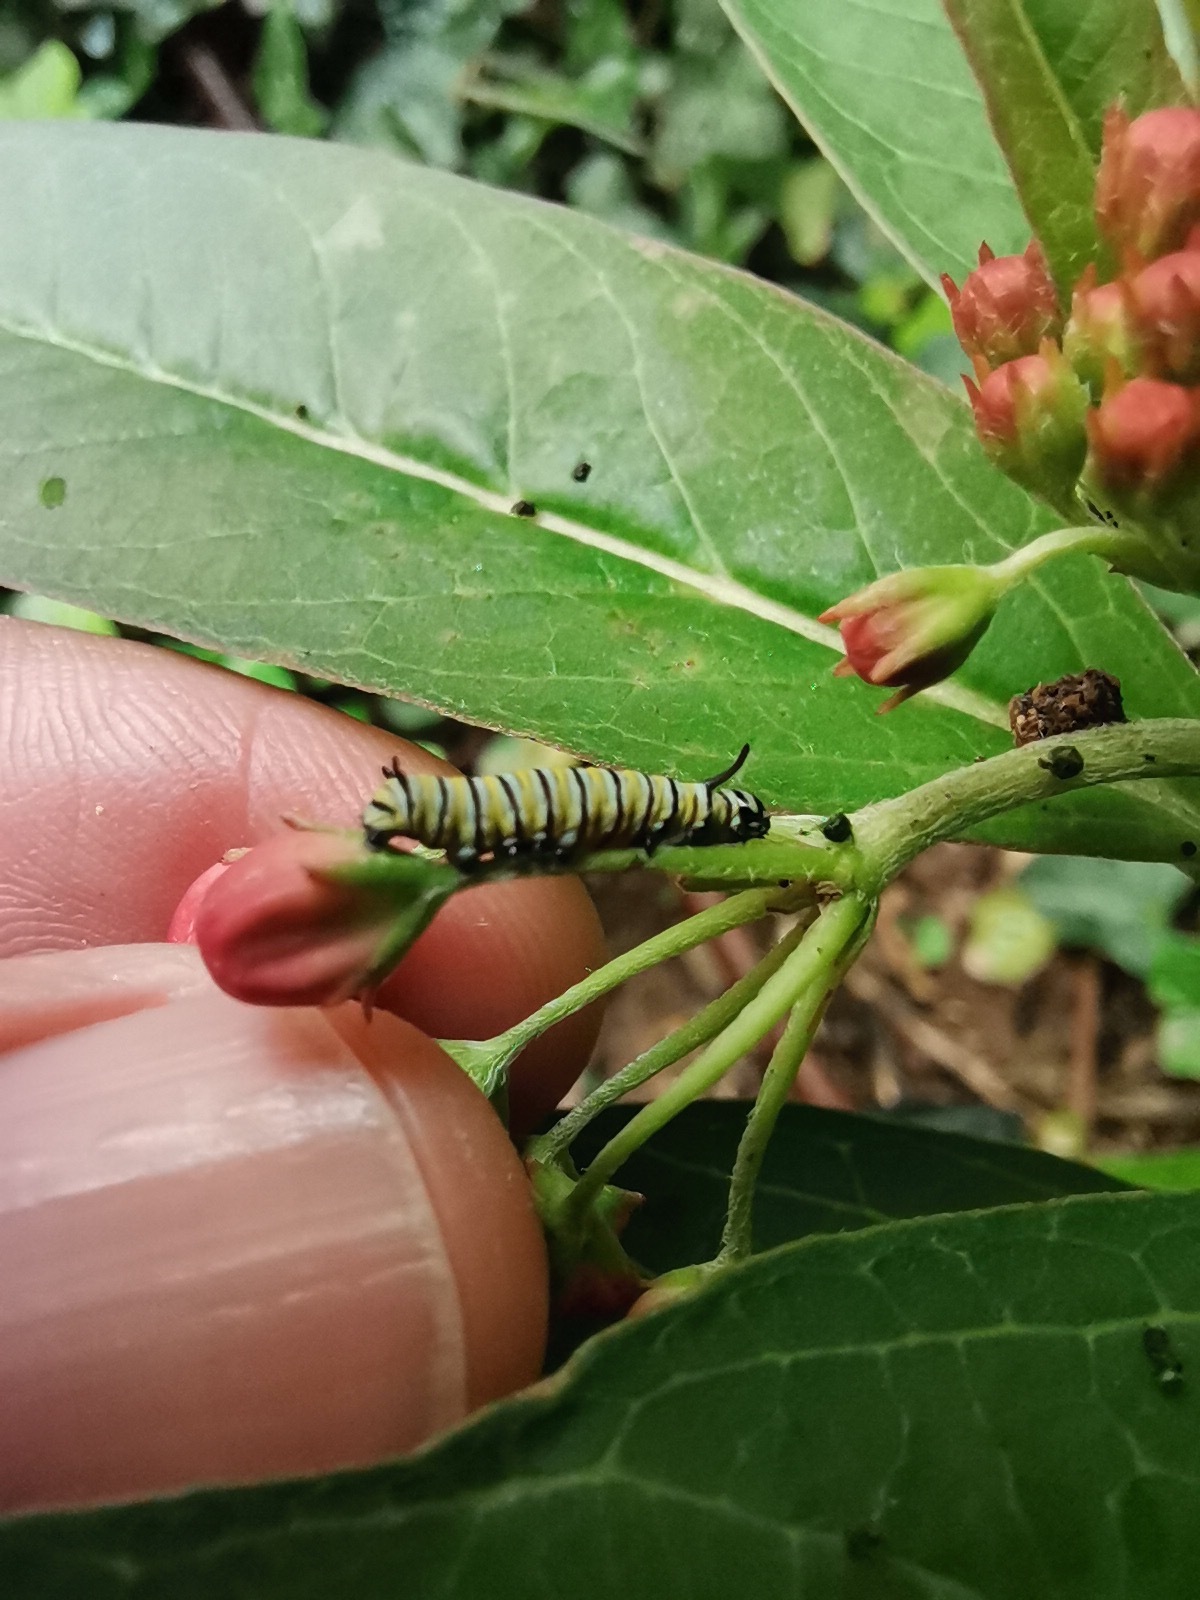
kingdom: Animalia
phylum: Arthropoda
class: Insecta
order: Lepidoptera
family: Nymphalidae
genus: Danaus
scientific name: Danaus plexippus
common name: Monarch
